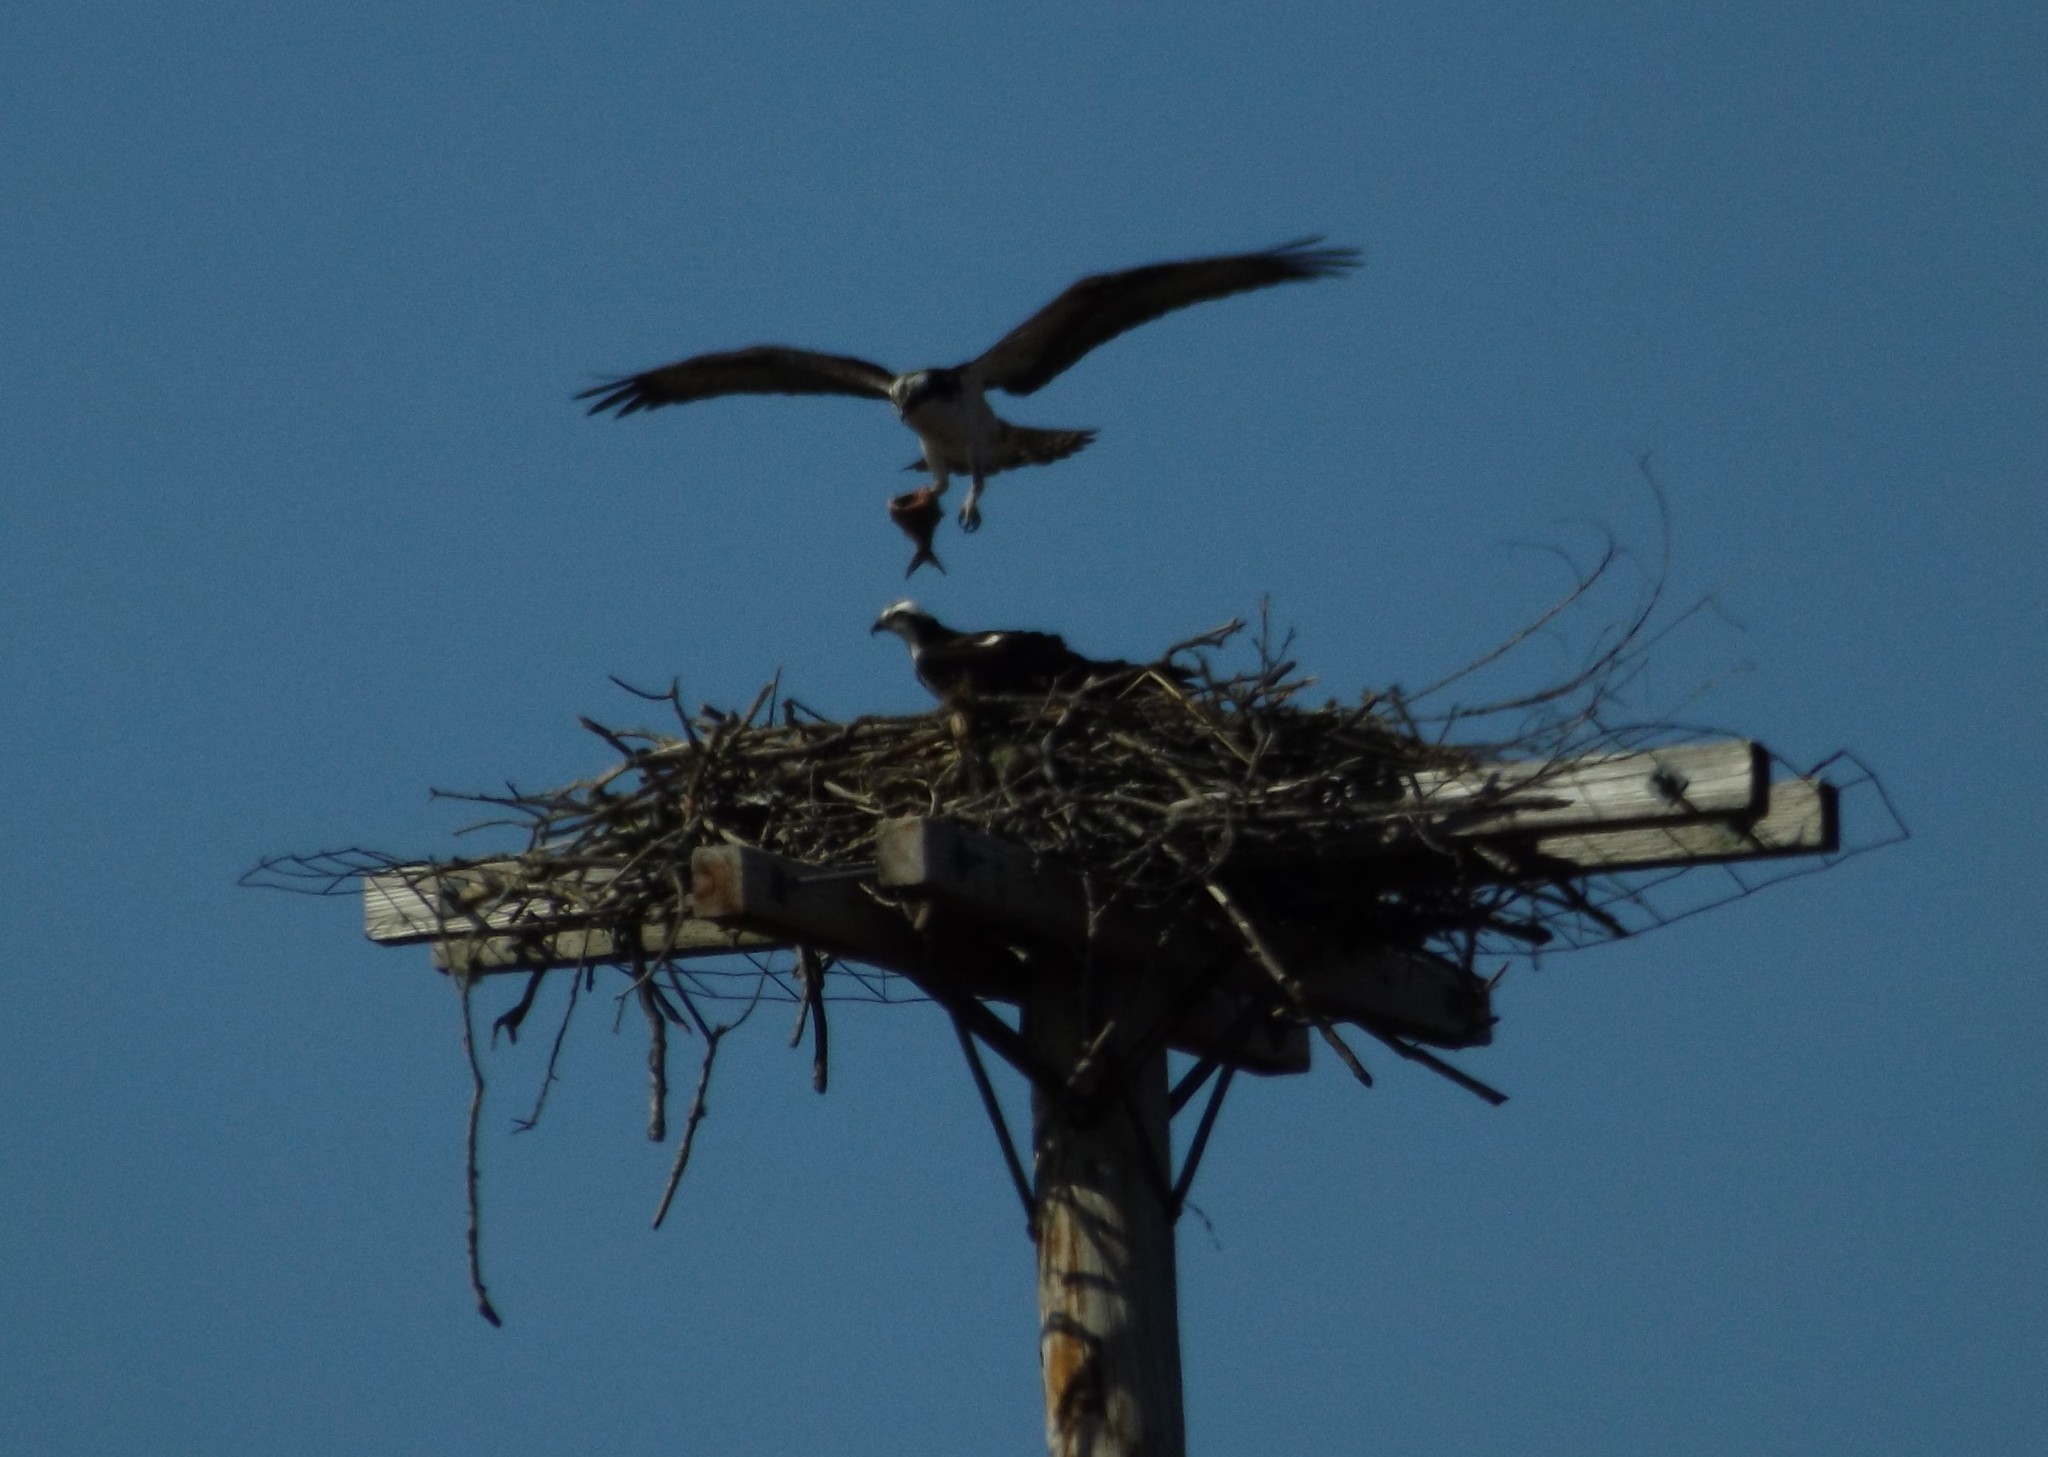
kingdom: Animalia
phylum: Chordata
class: Aves
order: Accipitriformes
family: Pandionidae
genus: Pandion
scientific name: Pandion haliaetus
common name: Osprey
